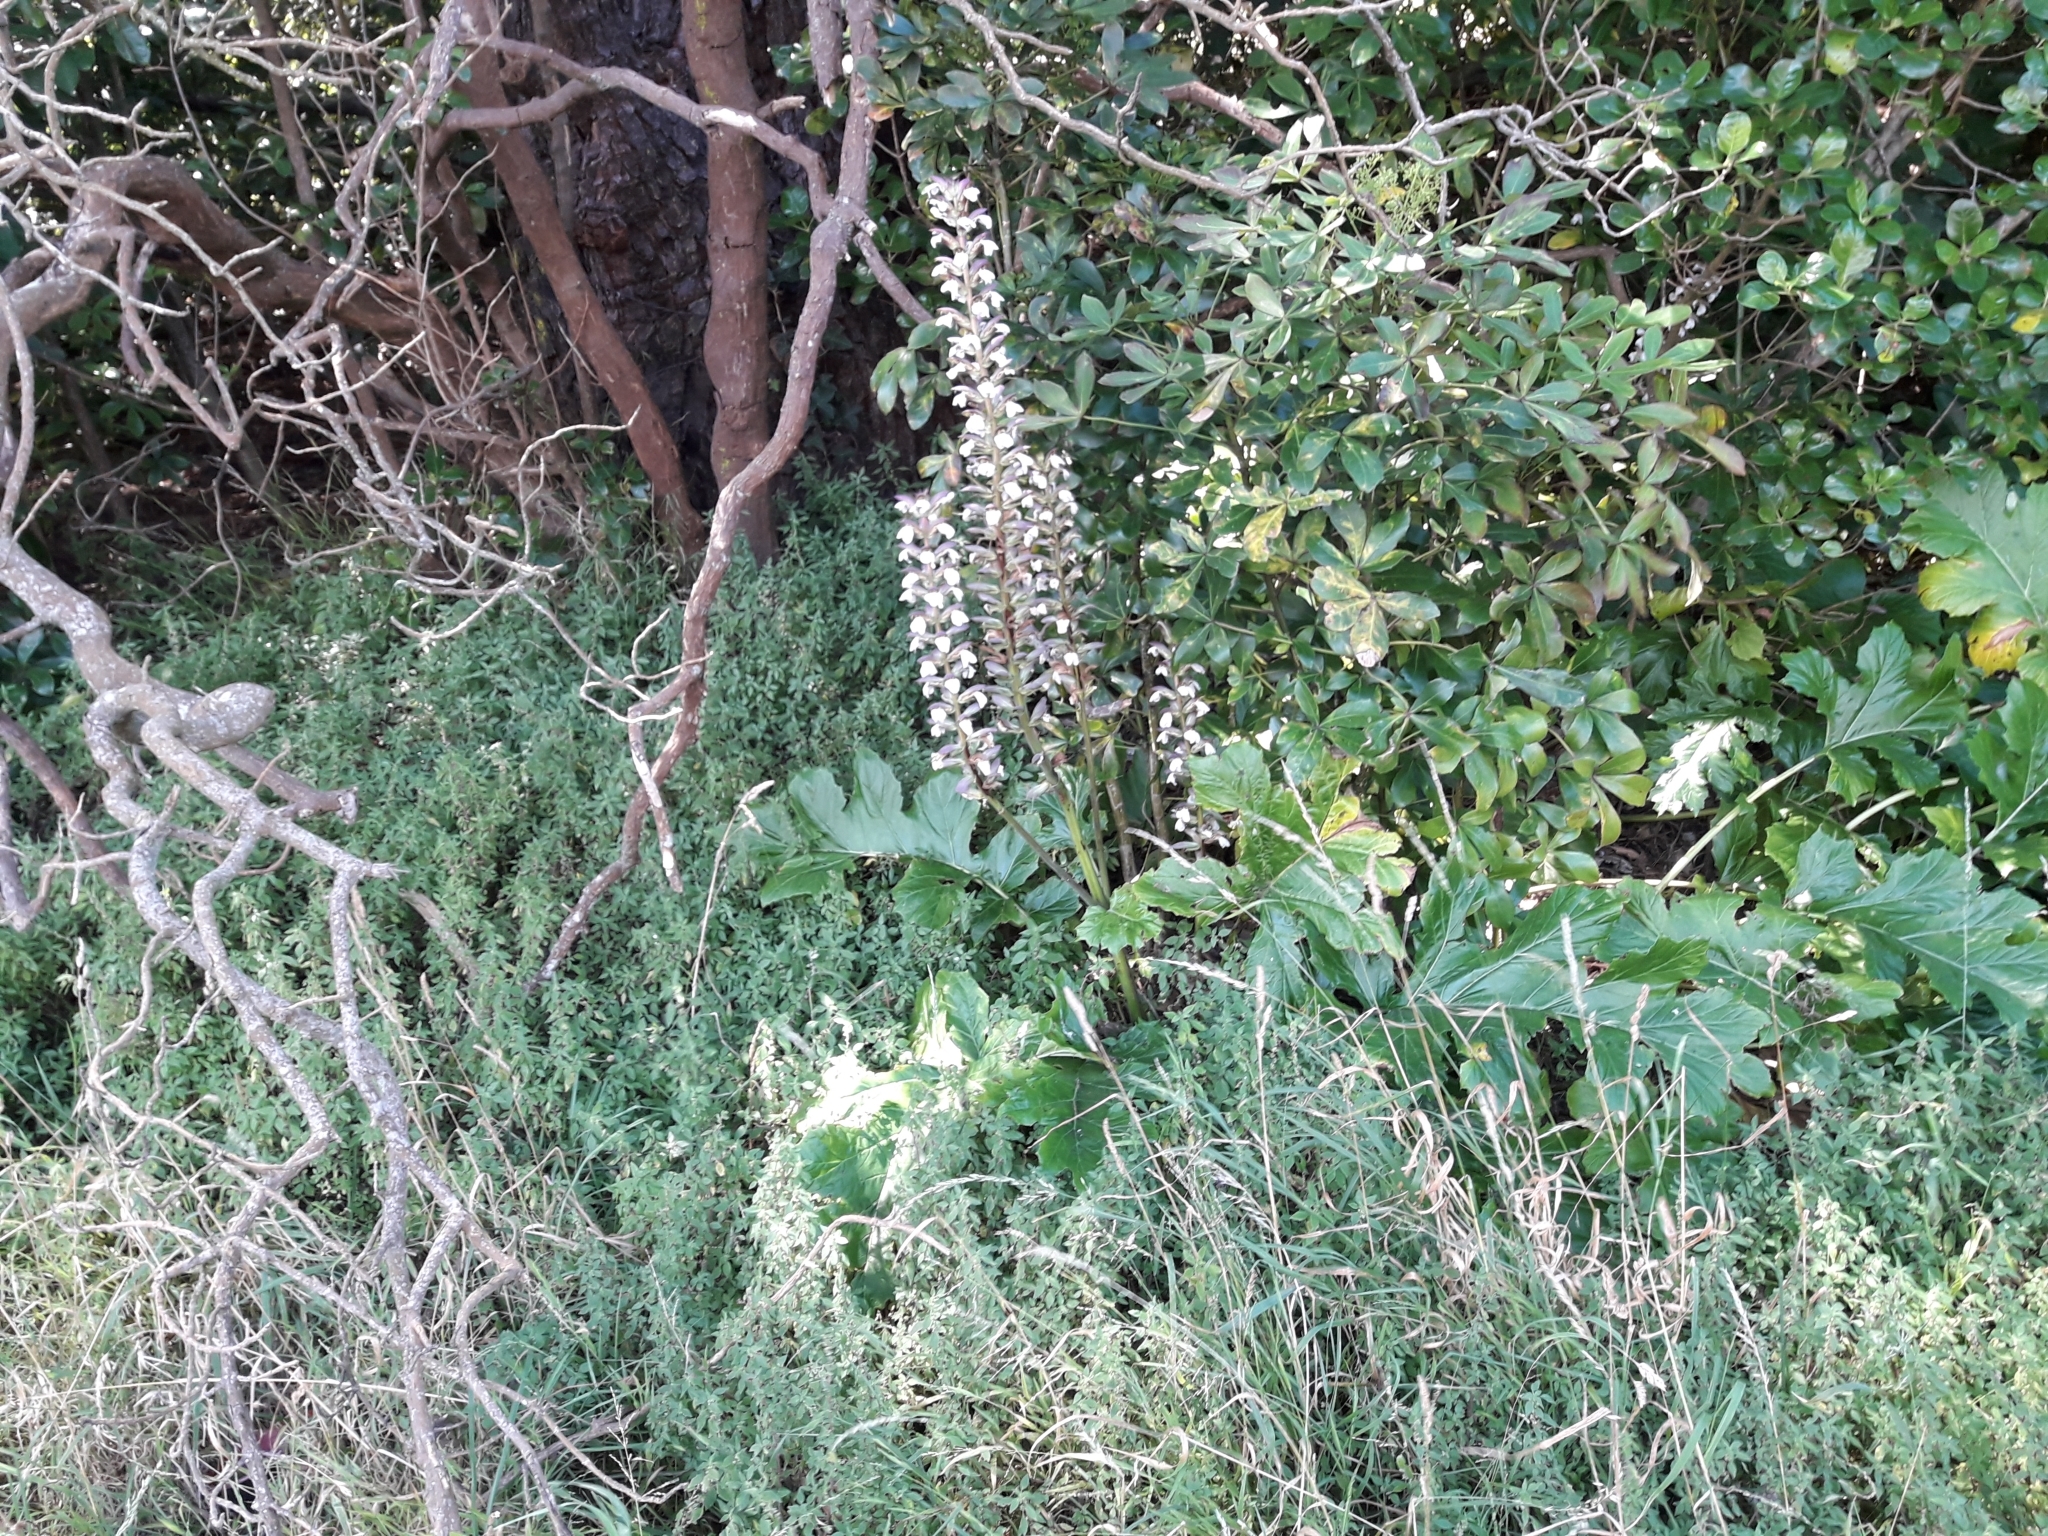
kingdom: Plantae
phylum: Tracheophyta
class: Magnoliopsida
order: Lamiales
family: Acanthaceae
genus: Acanthus
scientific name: Acanthus mollis
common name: Bear's-breech
